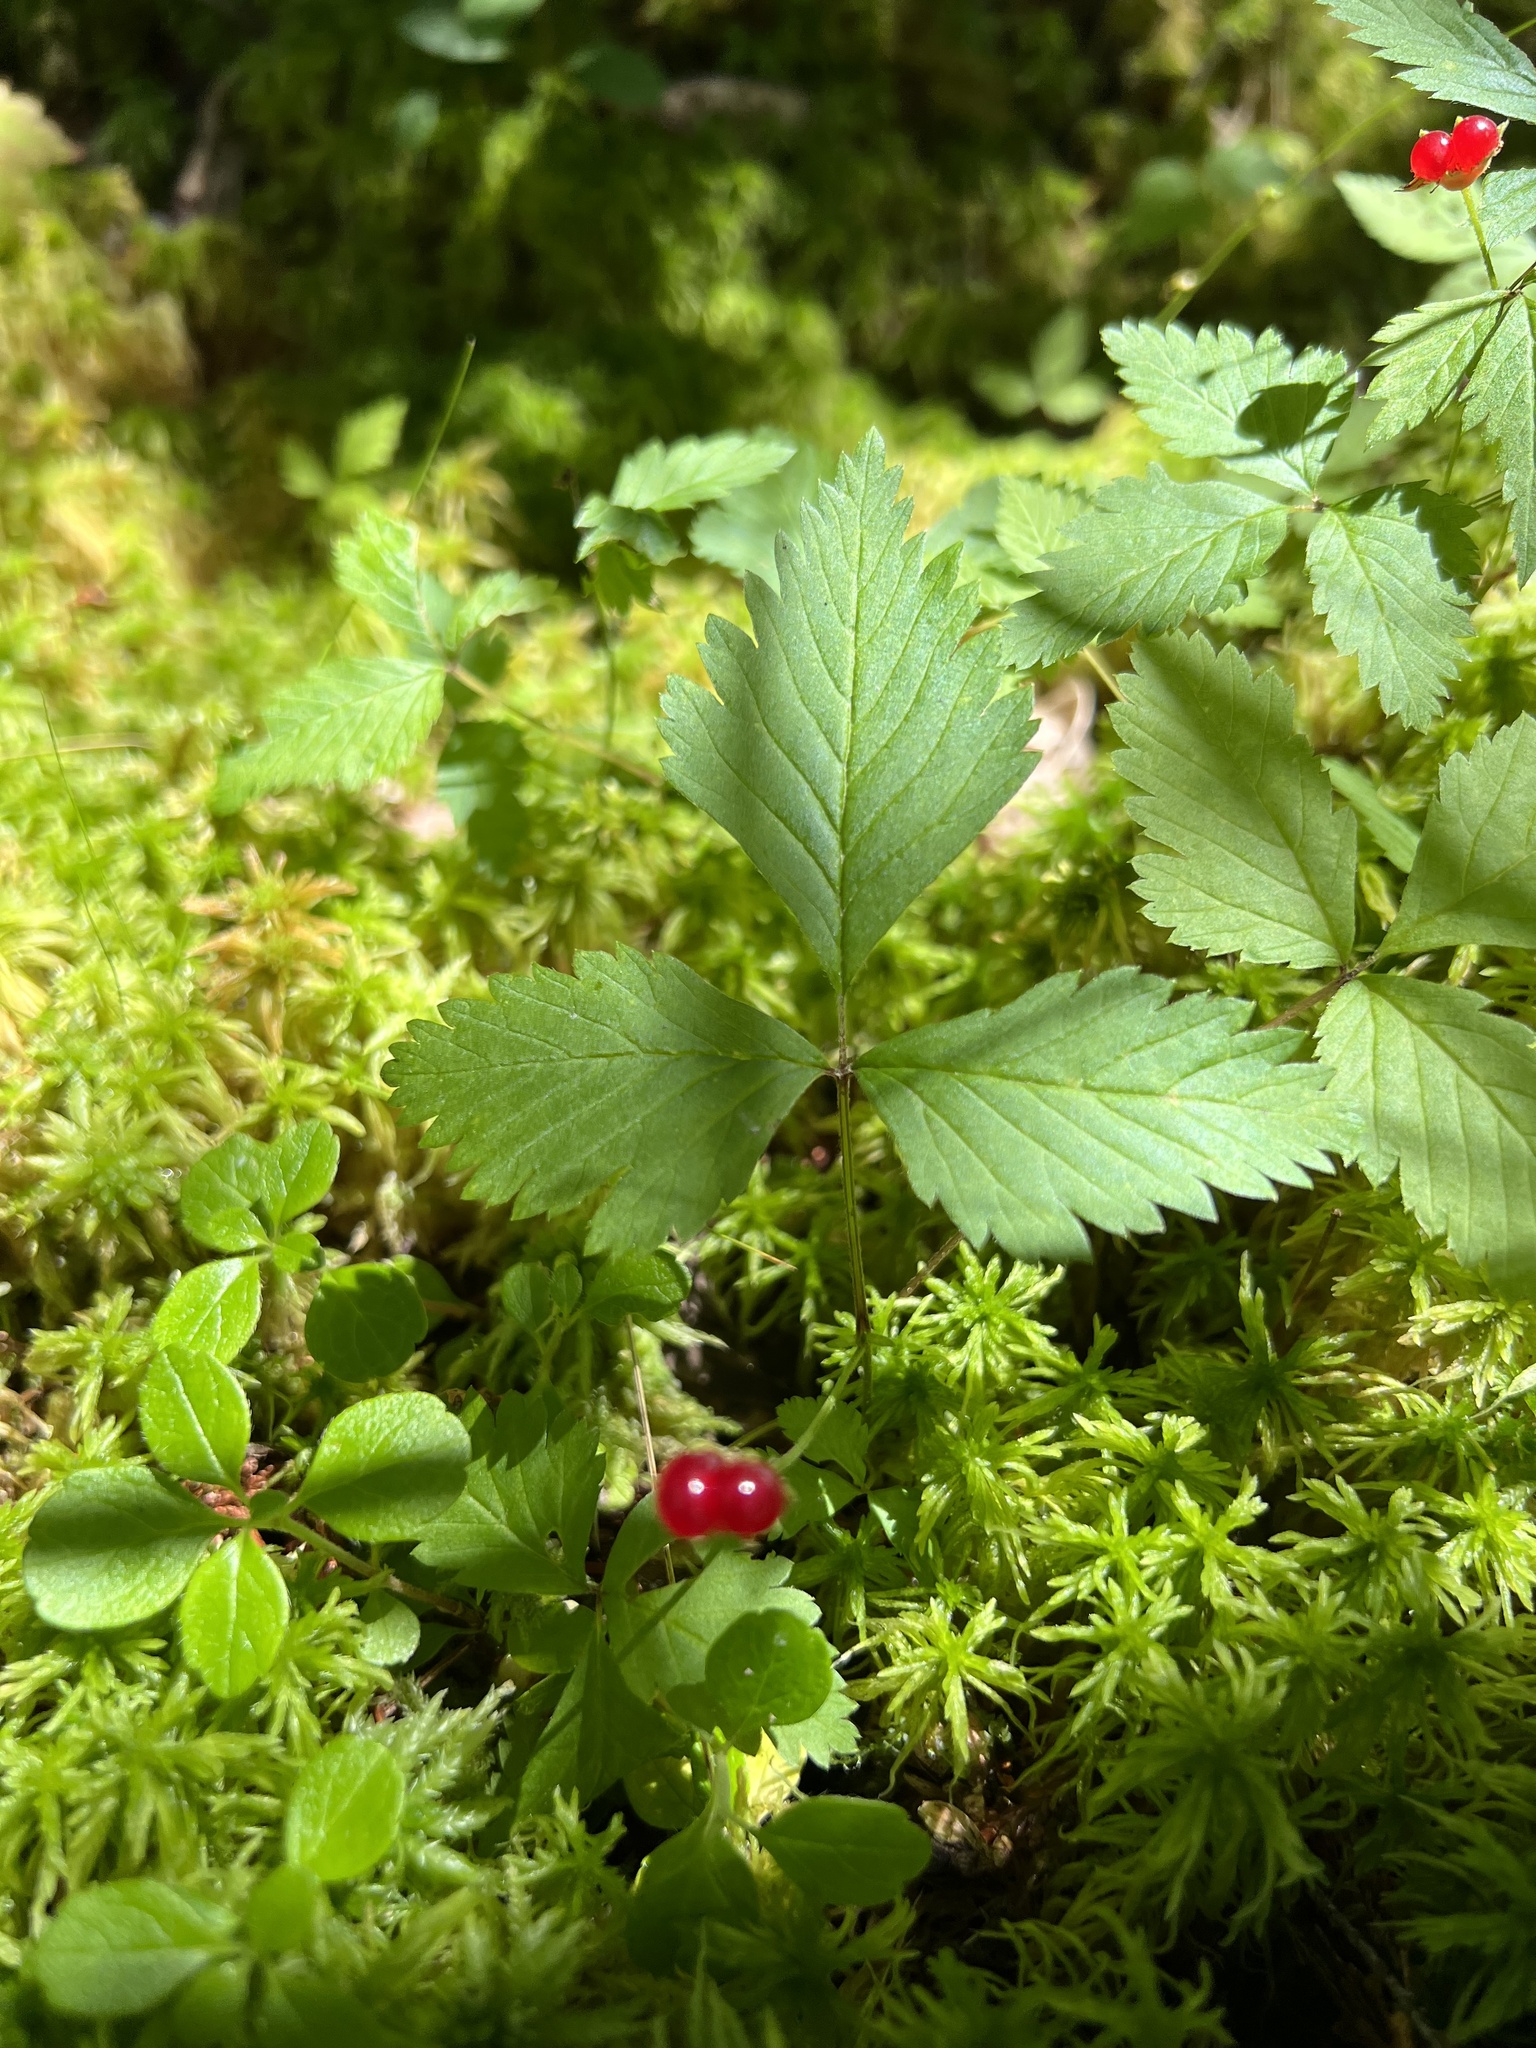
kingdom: Plantae
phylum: Tracheophyta
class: Magnoliopsida
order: Rosales
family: Rosaceae
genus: Rubus
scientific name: Rubus pubescens
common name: Dwarf raspberry
